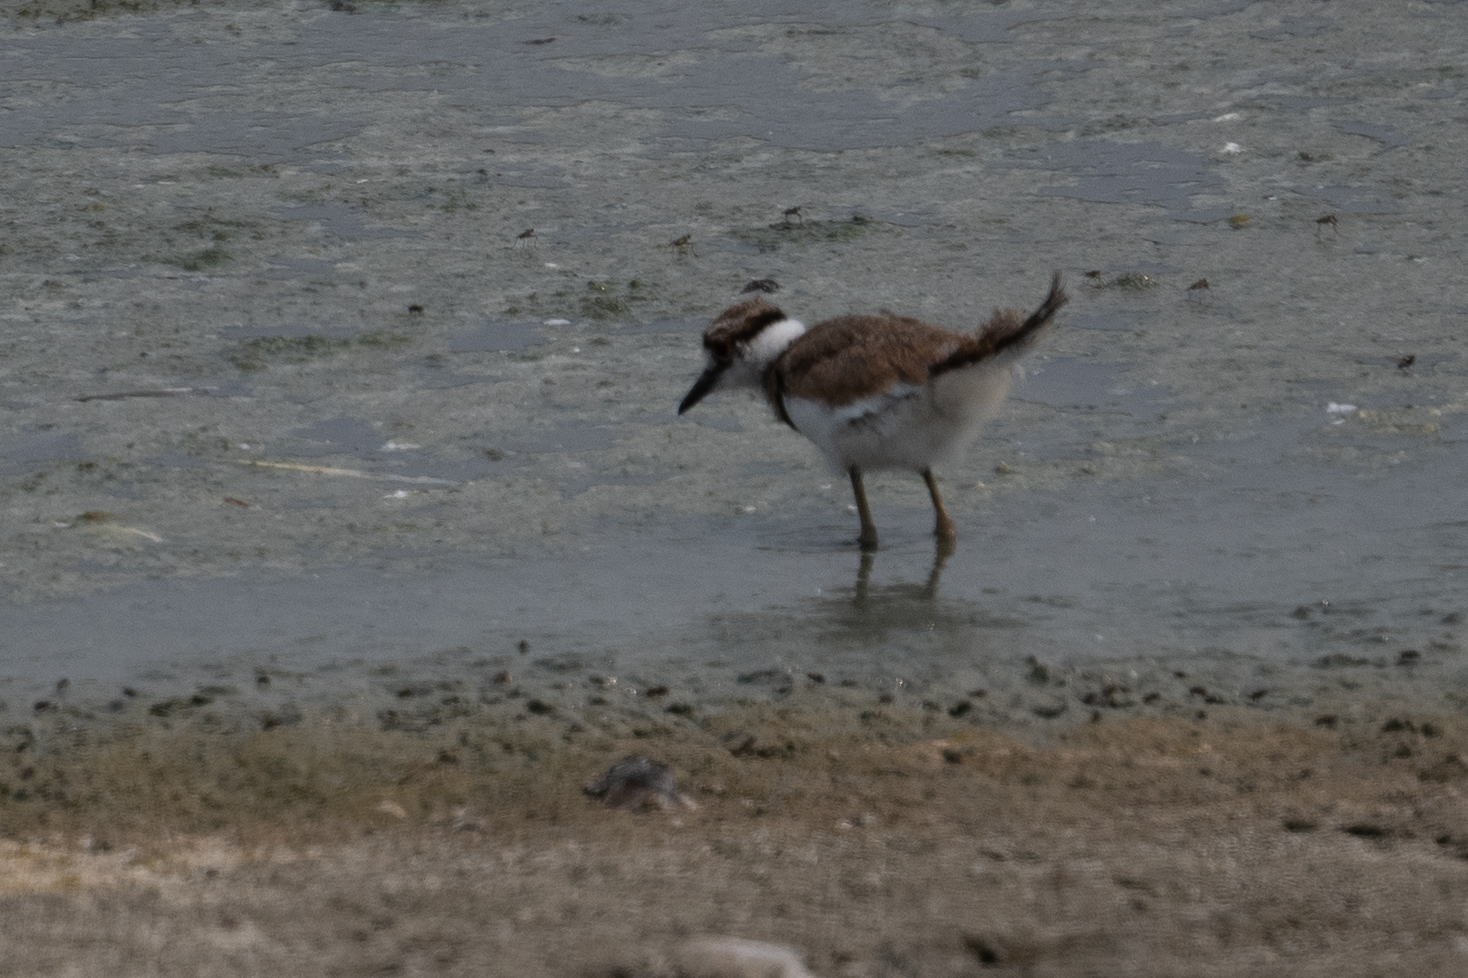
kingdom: Animalia
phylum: Chordata
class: Aves
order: Charadriiformes
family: Charadriidae
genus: Charadrius
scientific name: Charadrius vociferus
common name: Killdeer
